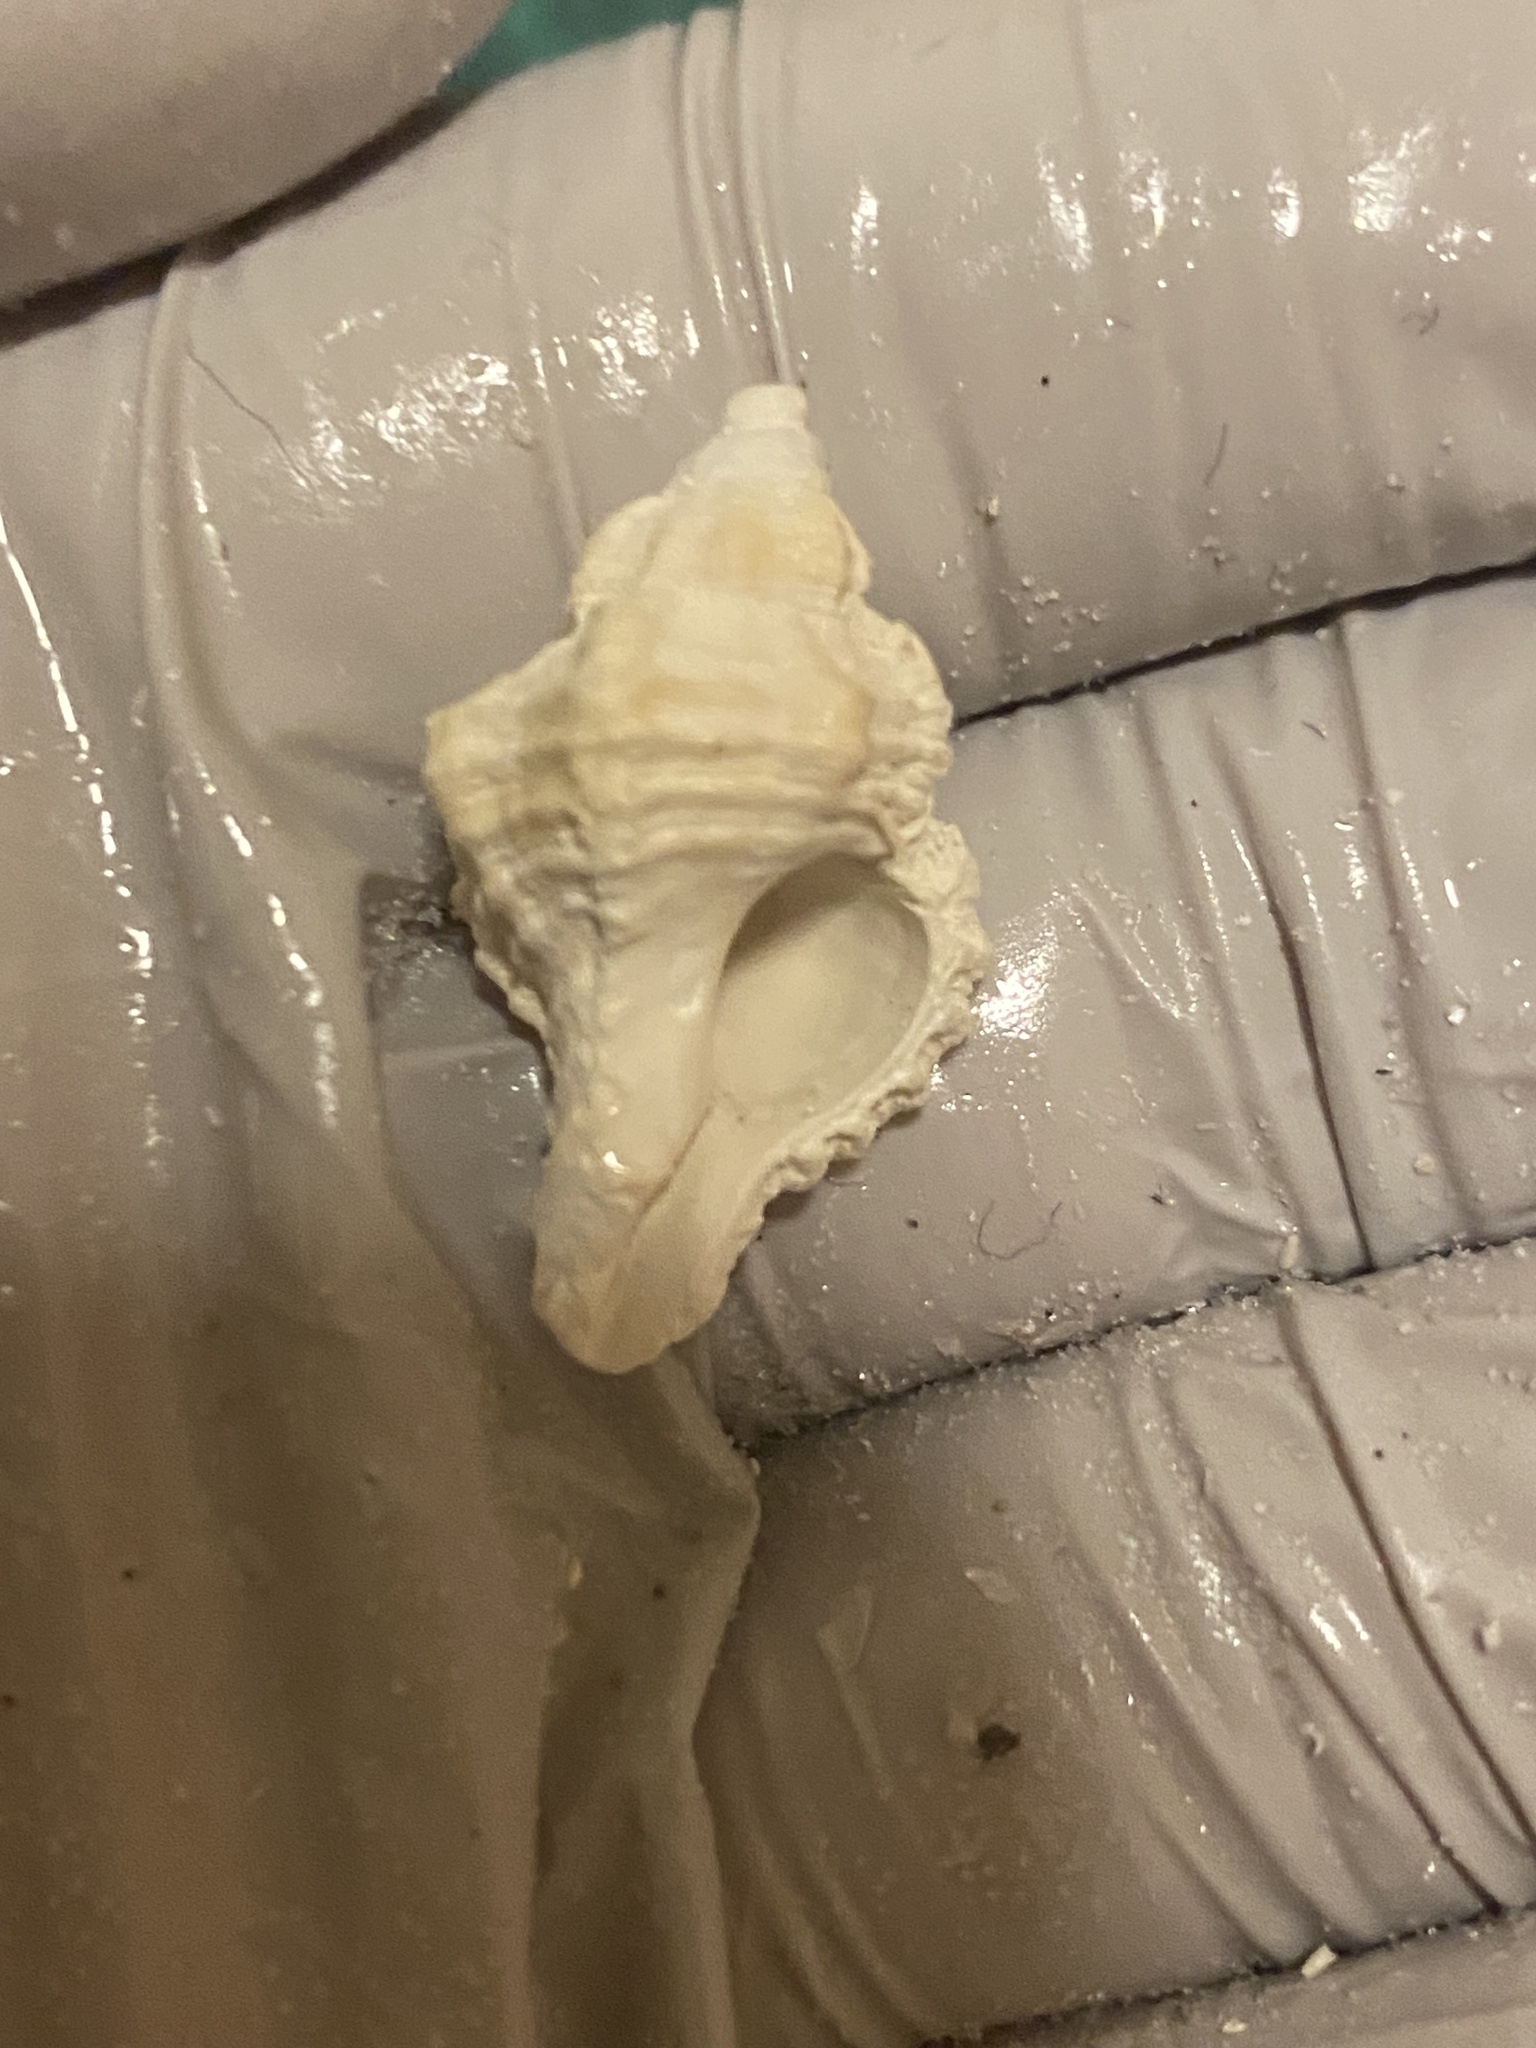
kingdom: Animalia
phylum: Mollusca
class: Gastropoda
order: Neogastropoda
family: Muricidae
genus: Phyllonotus
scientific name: Phyllonotus pomum
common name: Apple murex
